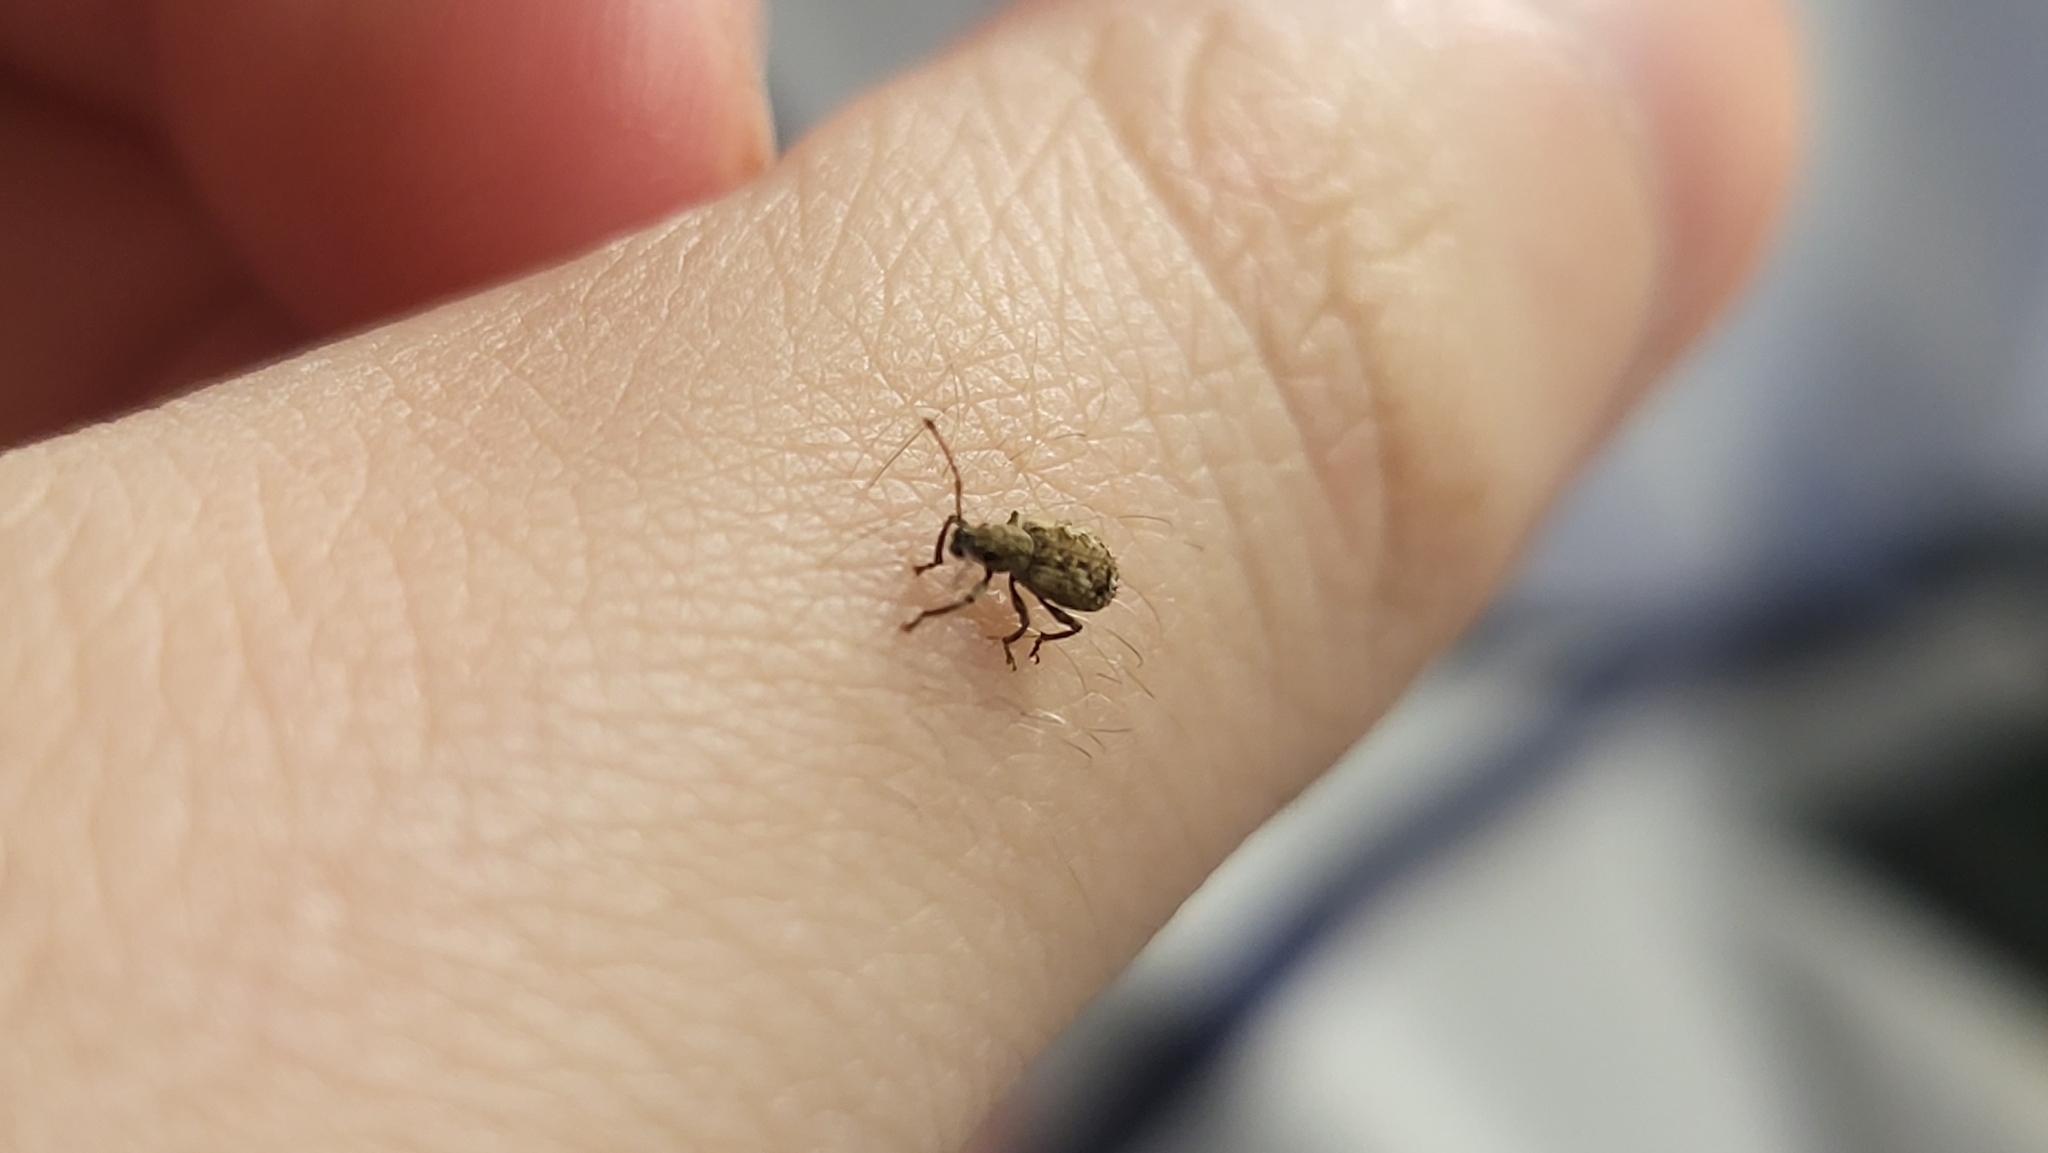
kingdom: Animalia
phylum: Arthropoda
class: Insecta
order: Coleoptera
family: Curculionidae
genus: Pseudoedophrys
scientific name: Pseudoedophrys hilleri
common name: Weevil
